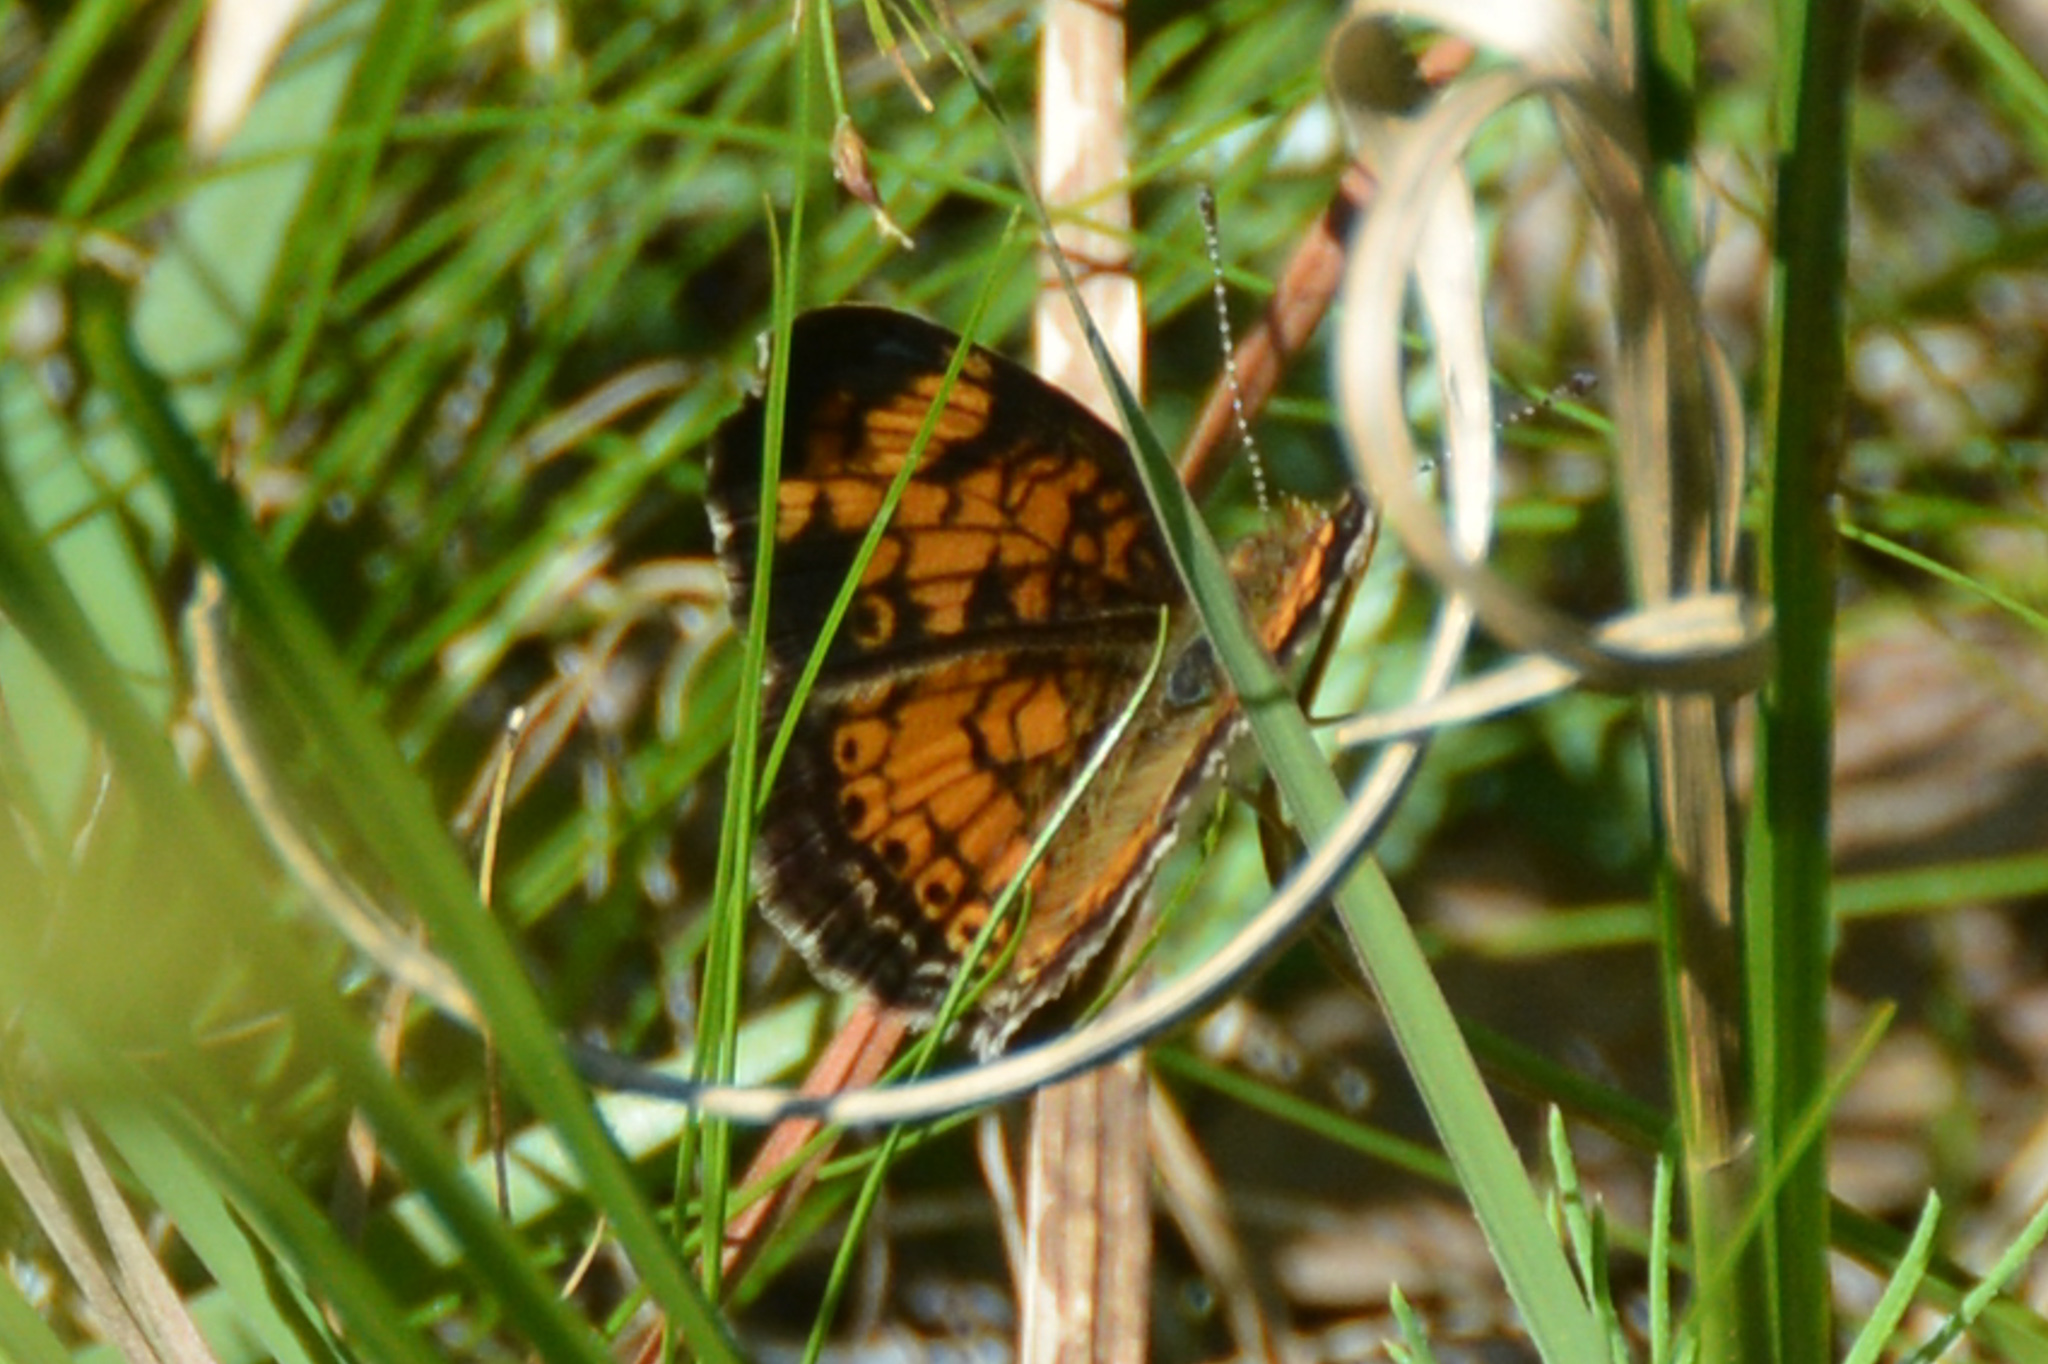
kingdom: Animalia
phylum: Arthropoda
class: Insecta
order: Lepidoptera
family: Nymphalidae
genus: Phyciodes
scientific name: Phyciodes tharos
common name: Pearl crescent
